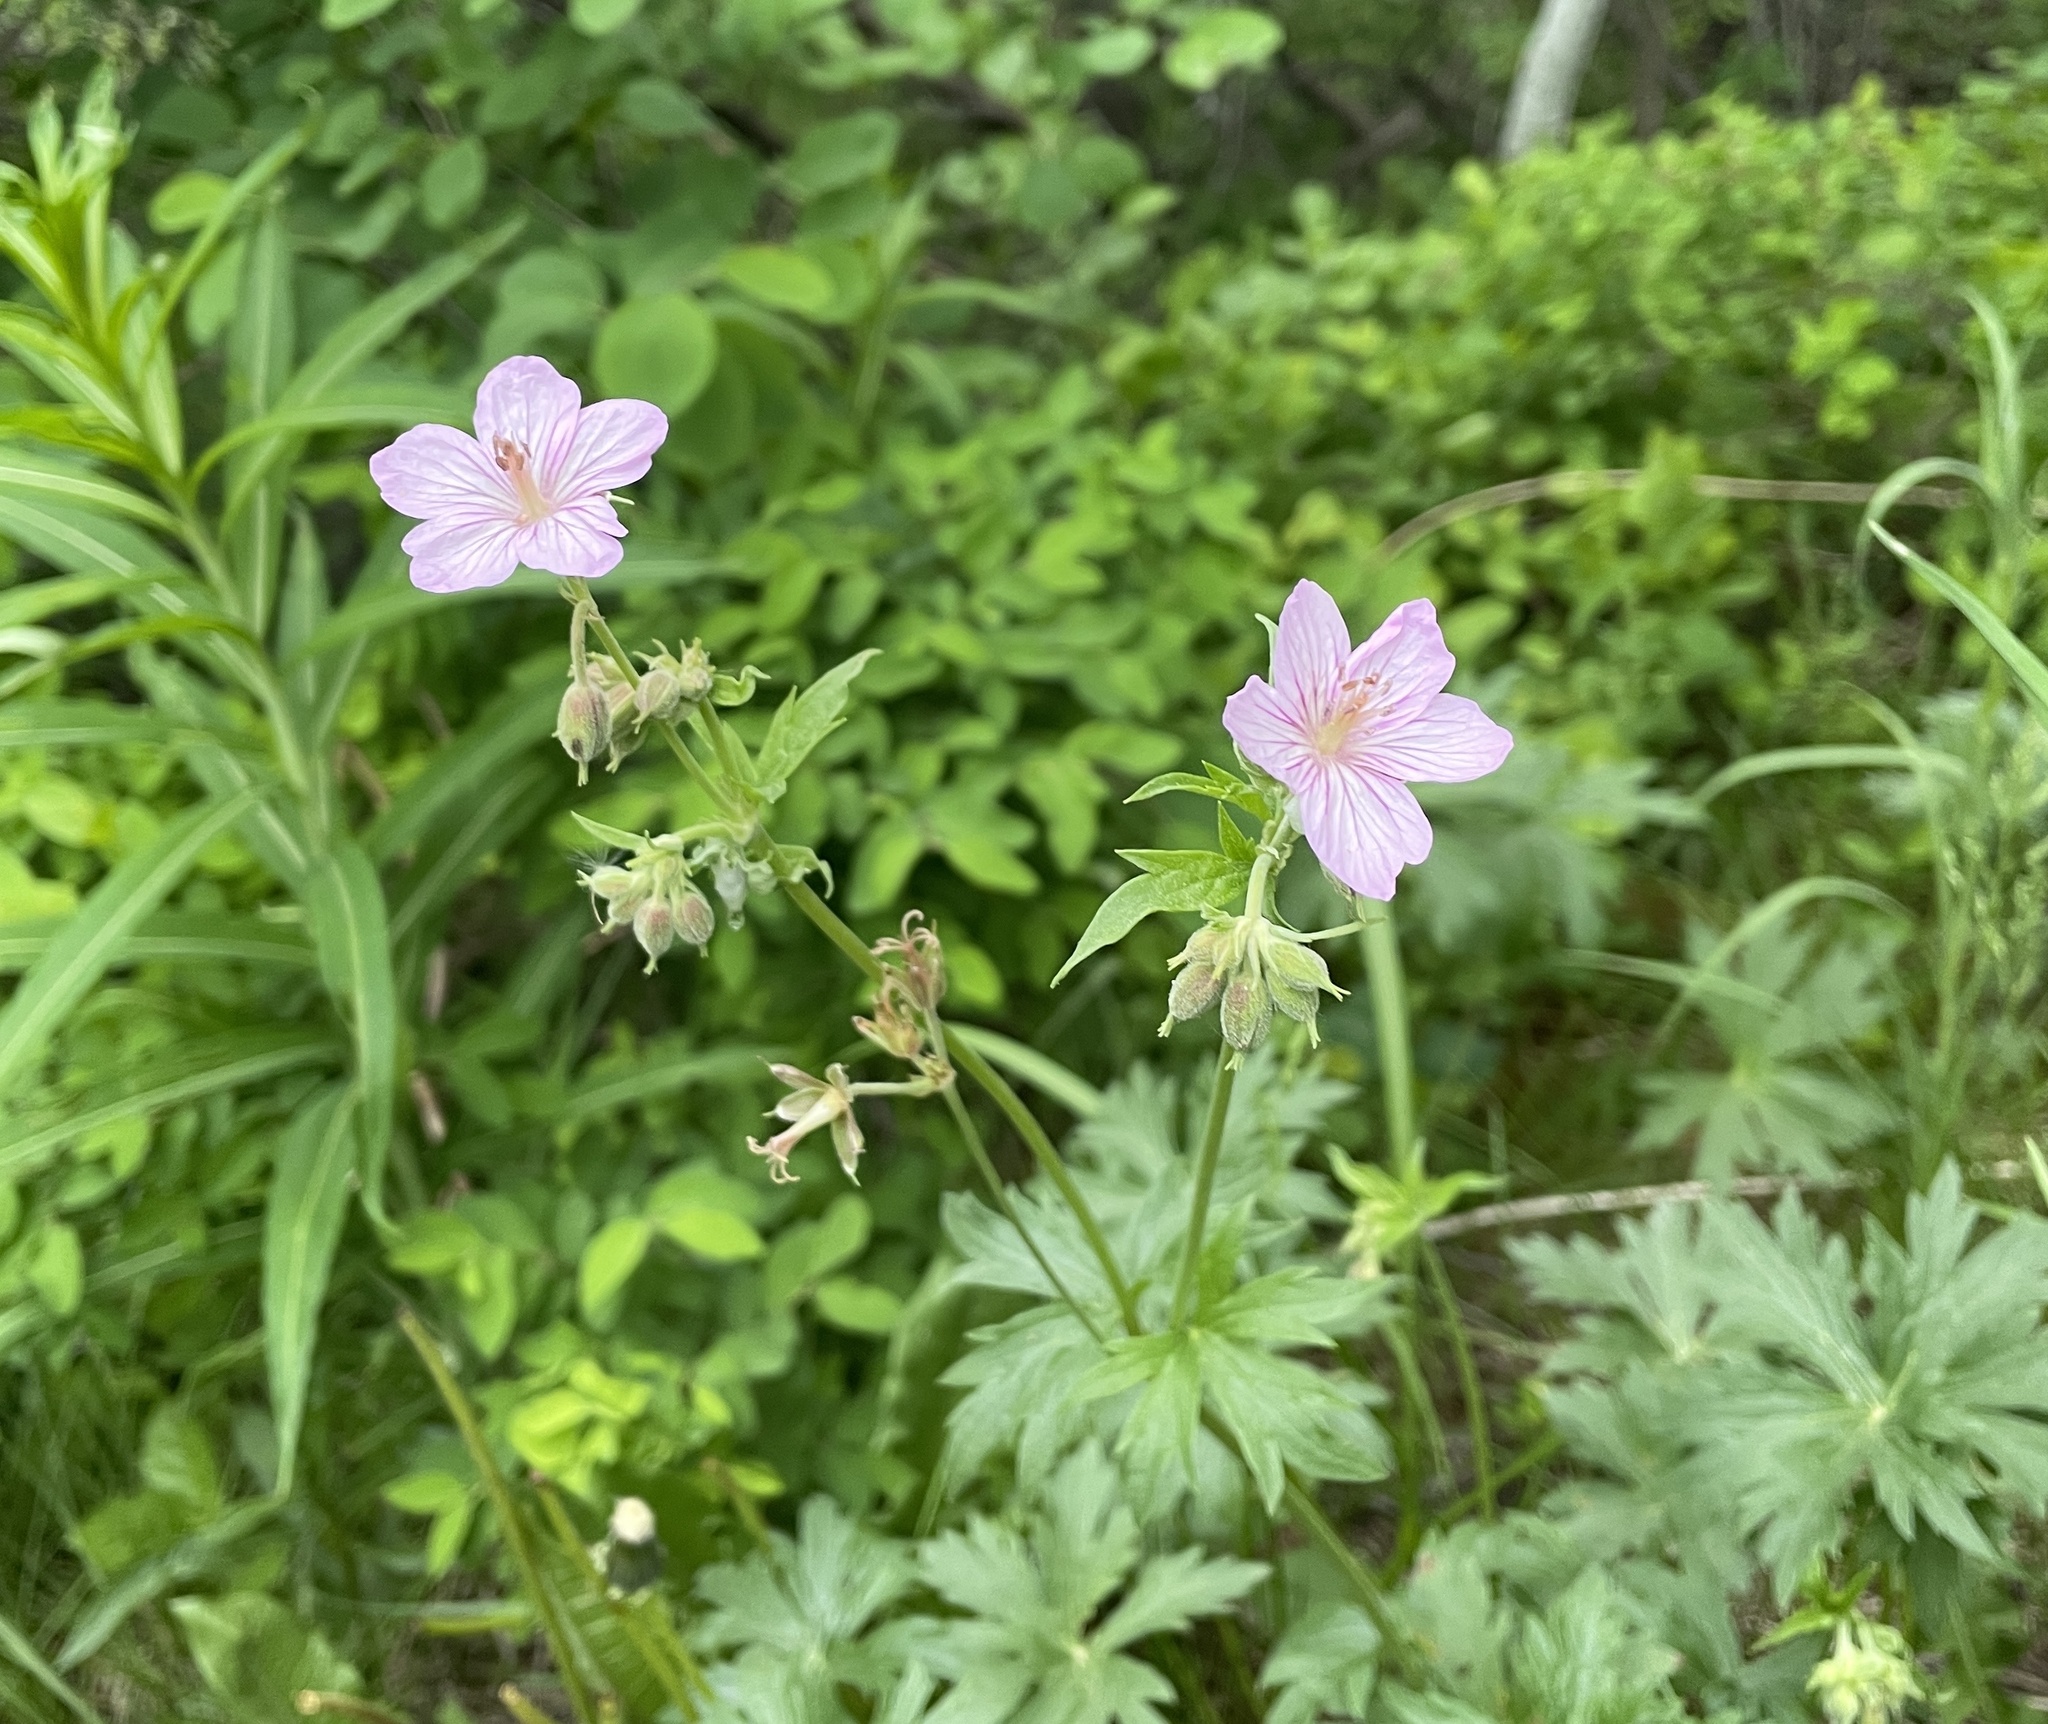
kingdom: Plantae
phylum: Tracheophyta
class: Magnoliopsida
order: Geraniales
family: Geraniaceae
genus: Geranium
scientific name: Geranium viscosissimum
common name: Purple geranium
